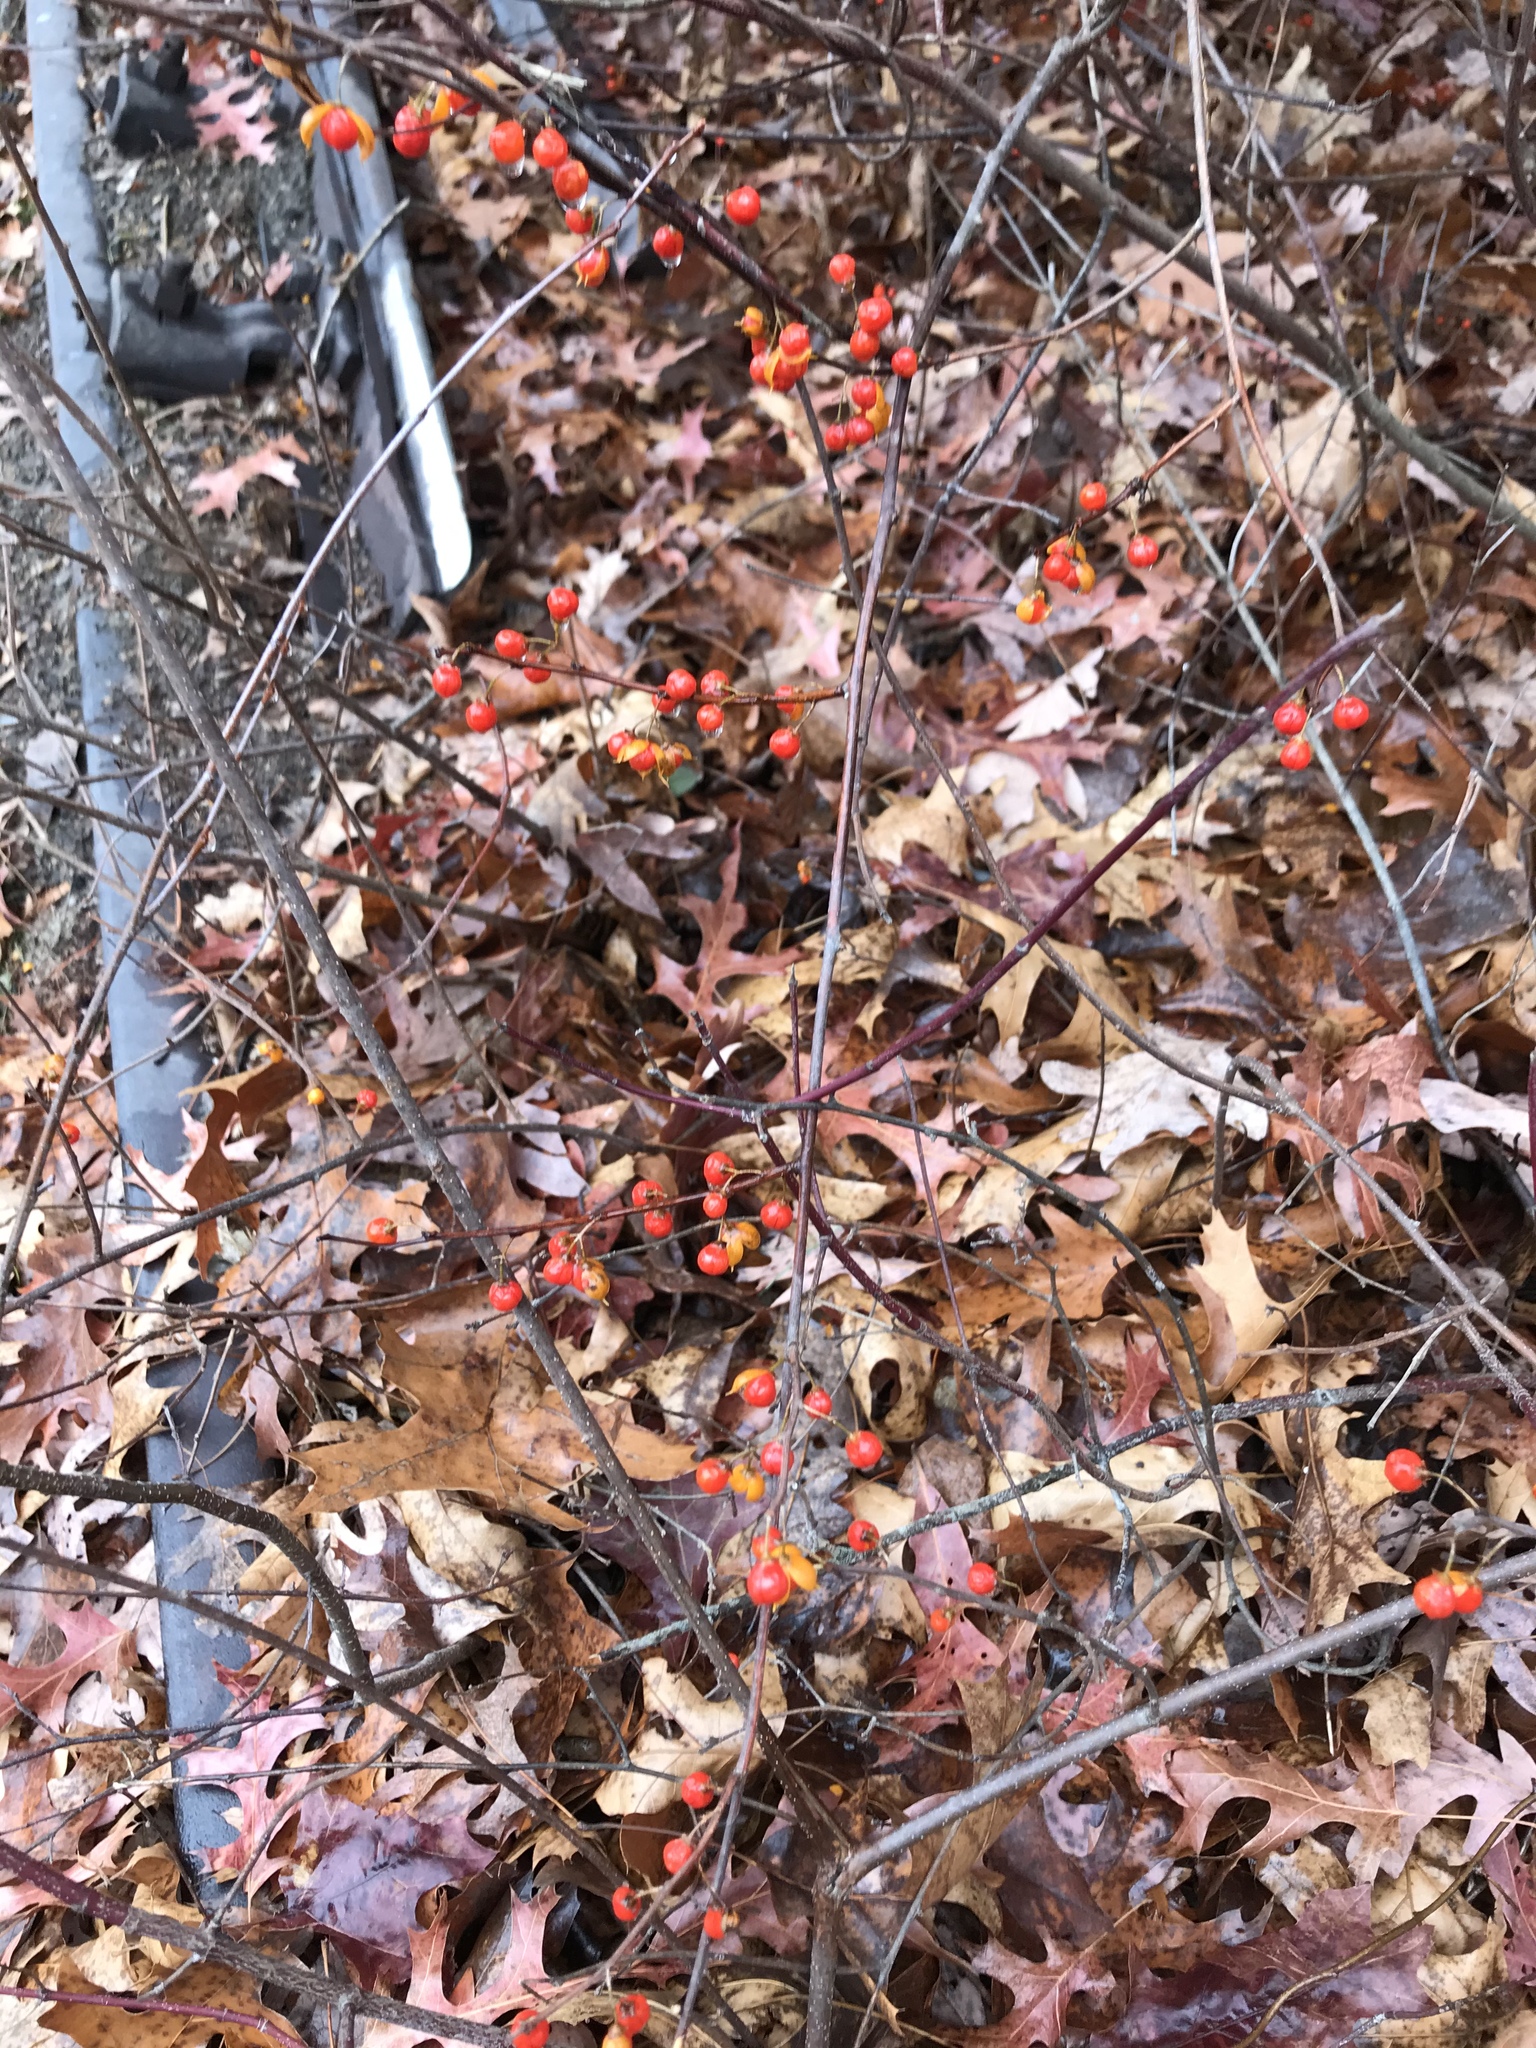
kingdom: Plantae
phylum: Tracheophyta
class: Magnoliopsida
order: Celastrales
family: Celastraceae
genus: Celastrus
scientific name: Celastrus orbiculatus
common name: Oriental bittersweet
